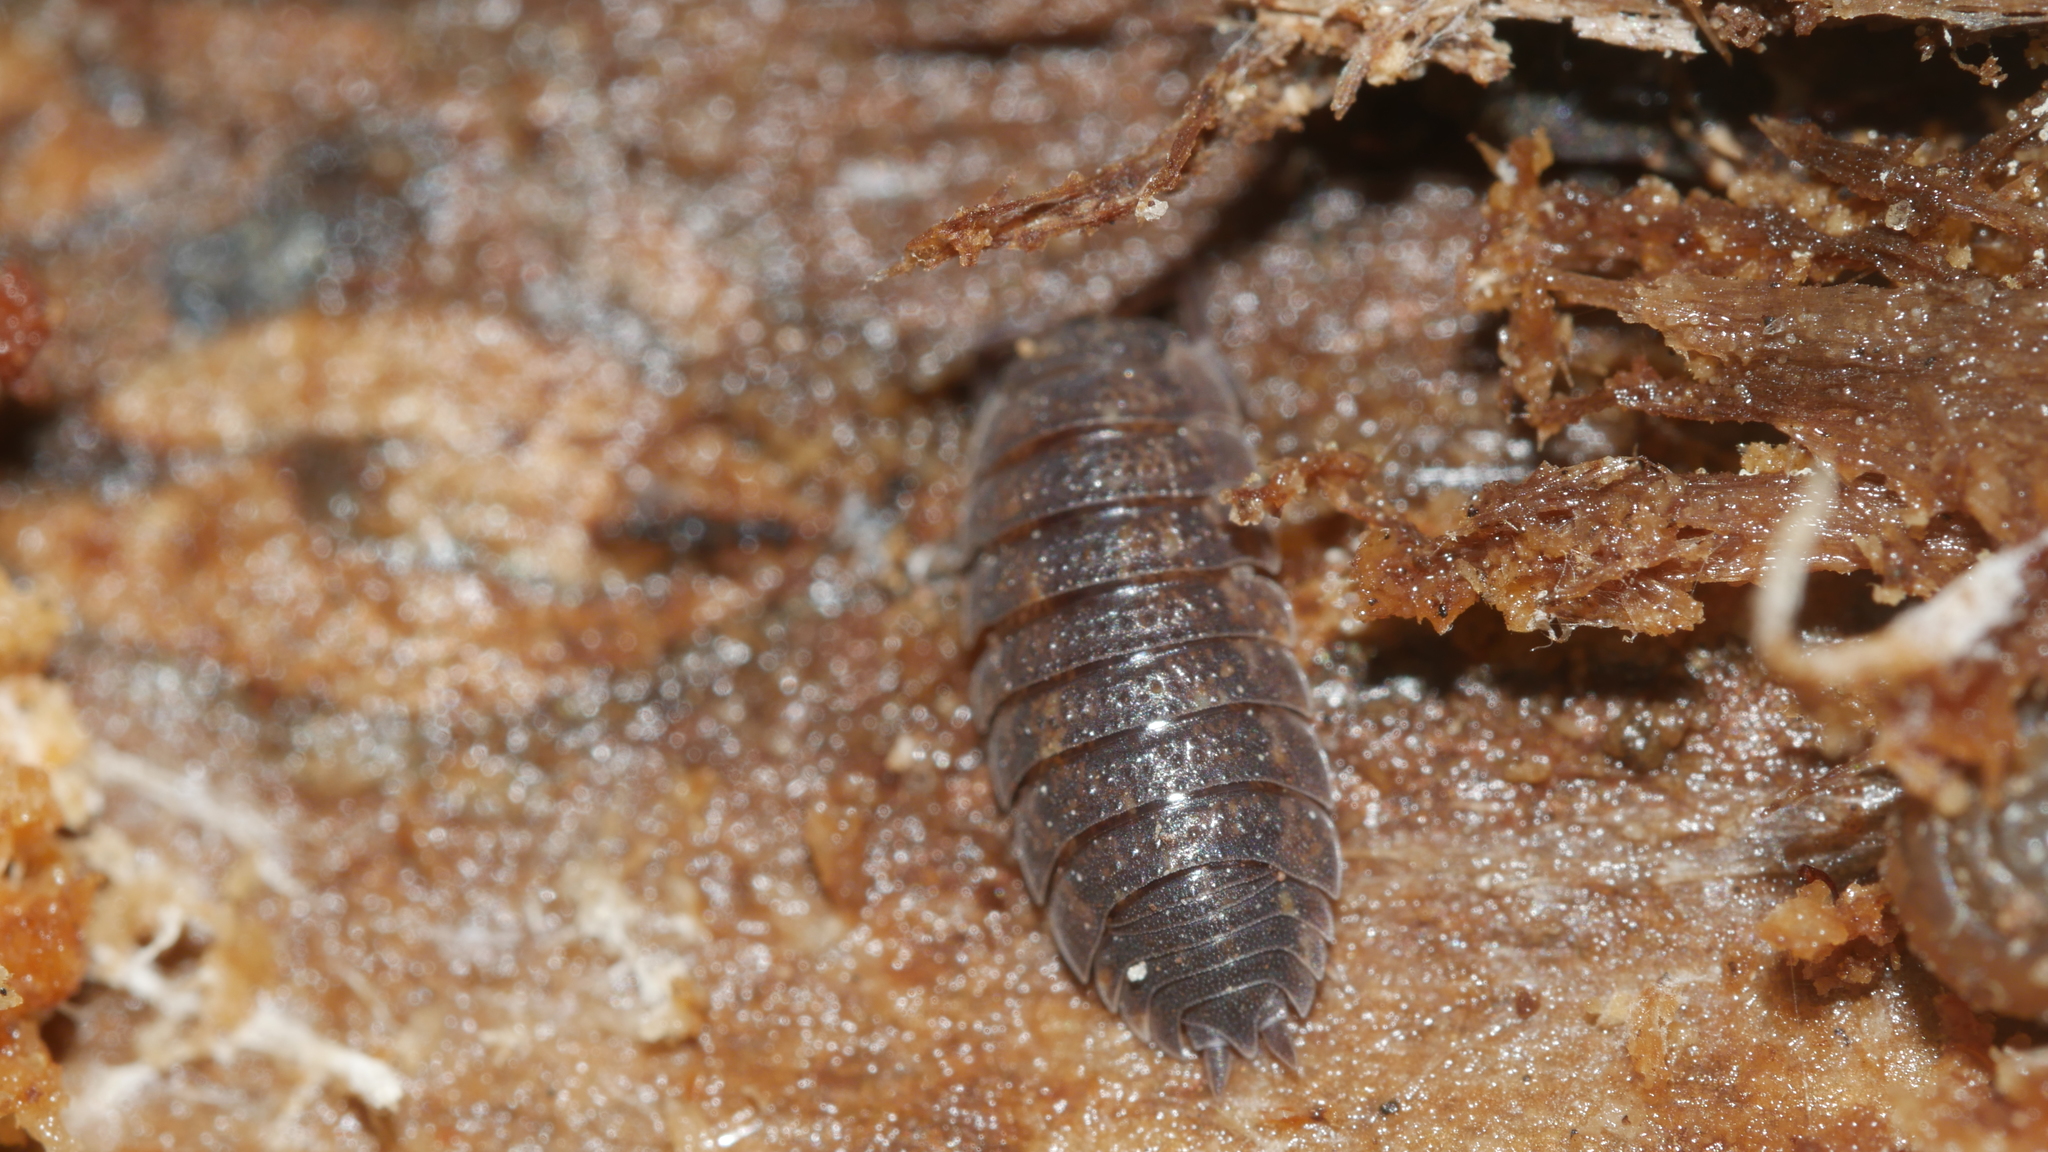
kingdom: Animalia
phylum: Arthropoda
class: Malacostraca
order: Isopoda
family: Porcellionidae
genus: Porcellio
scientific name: Porcellio scaber
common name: Common rough woodlouse
